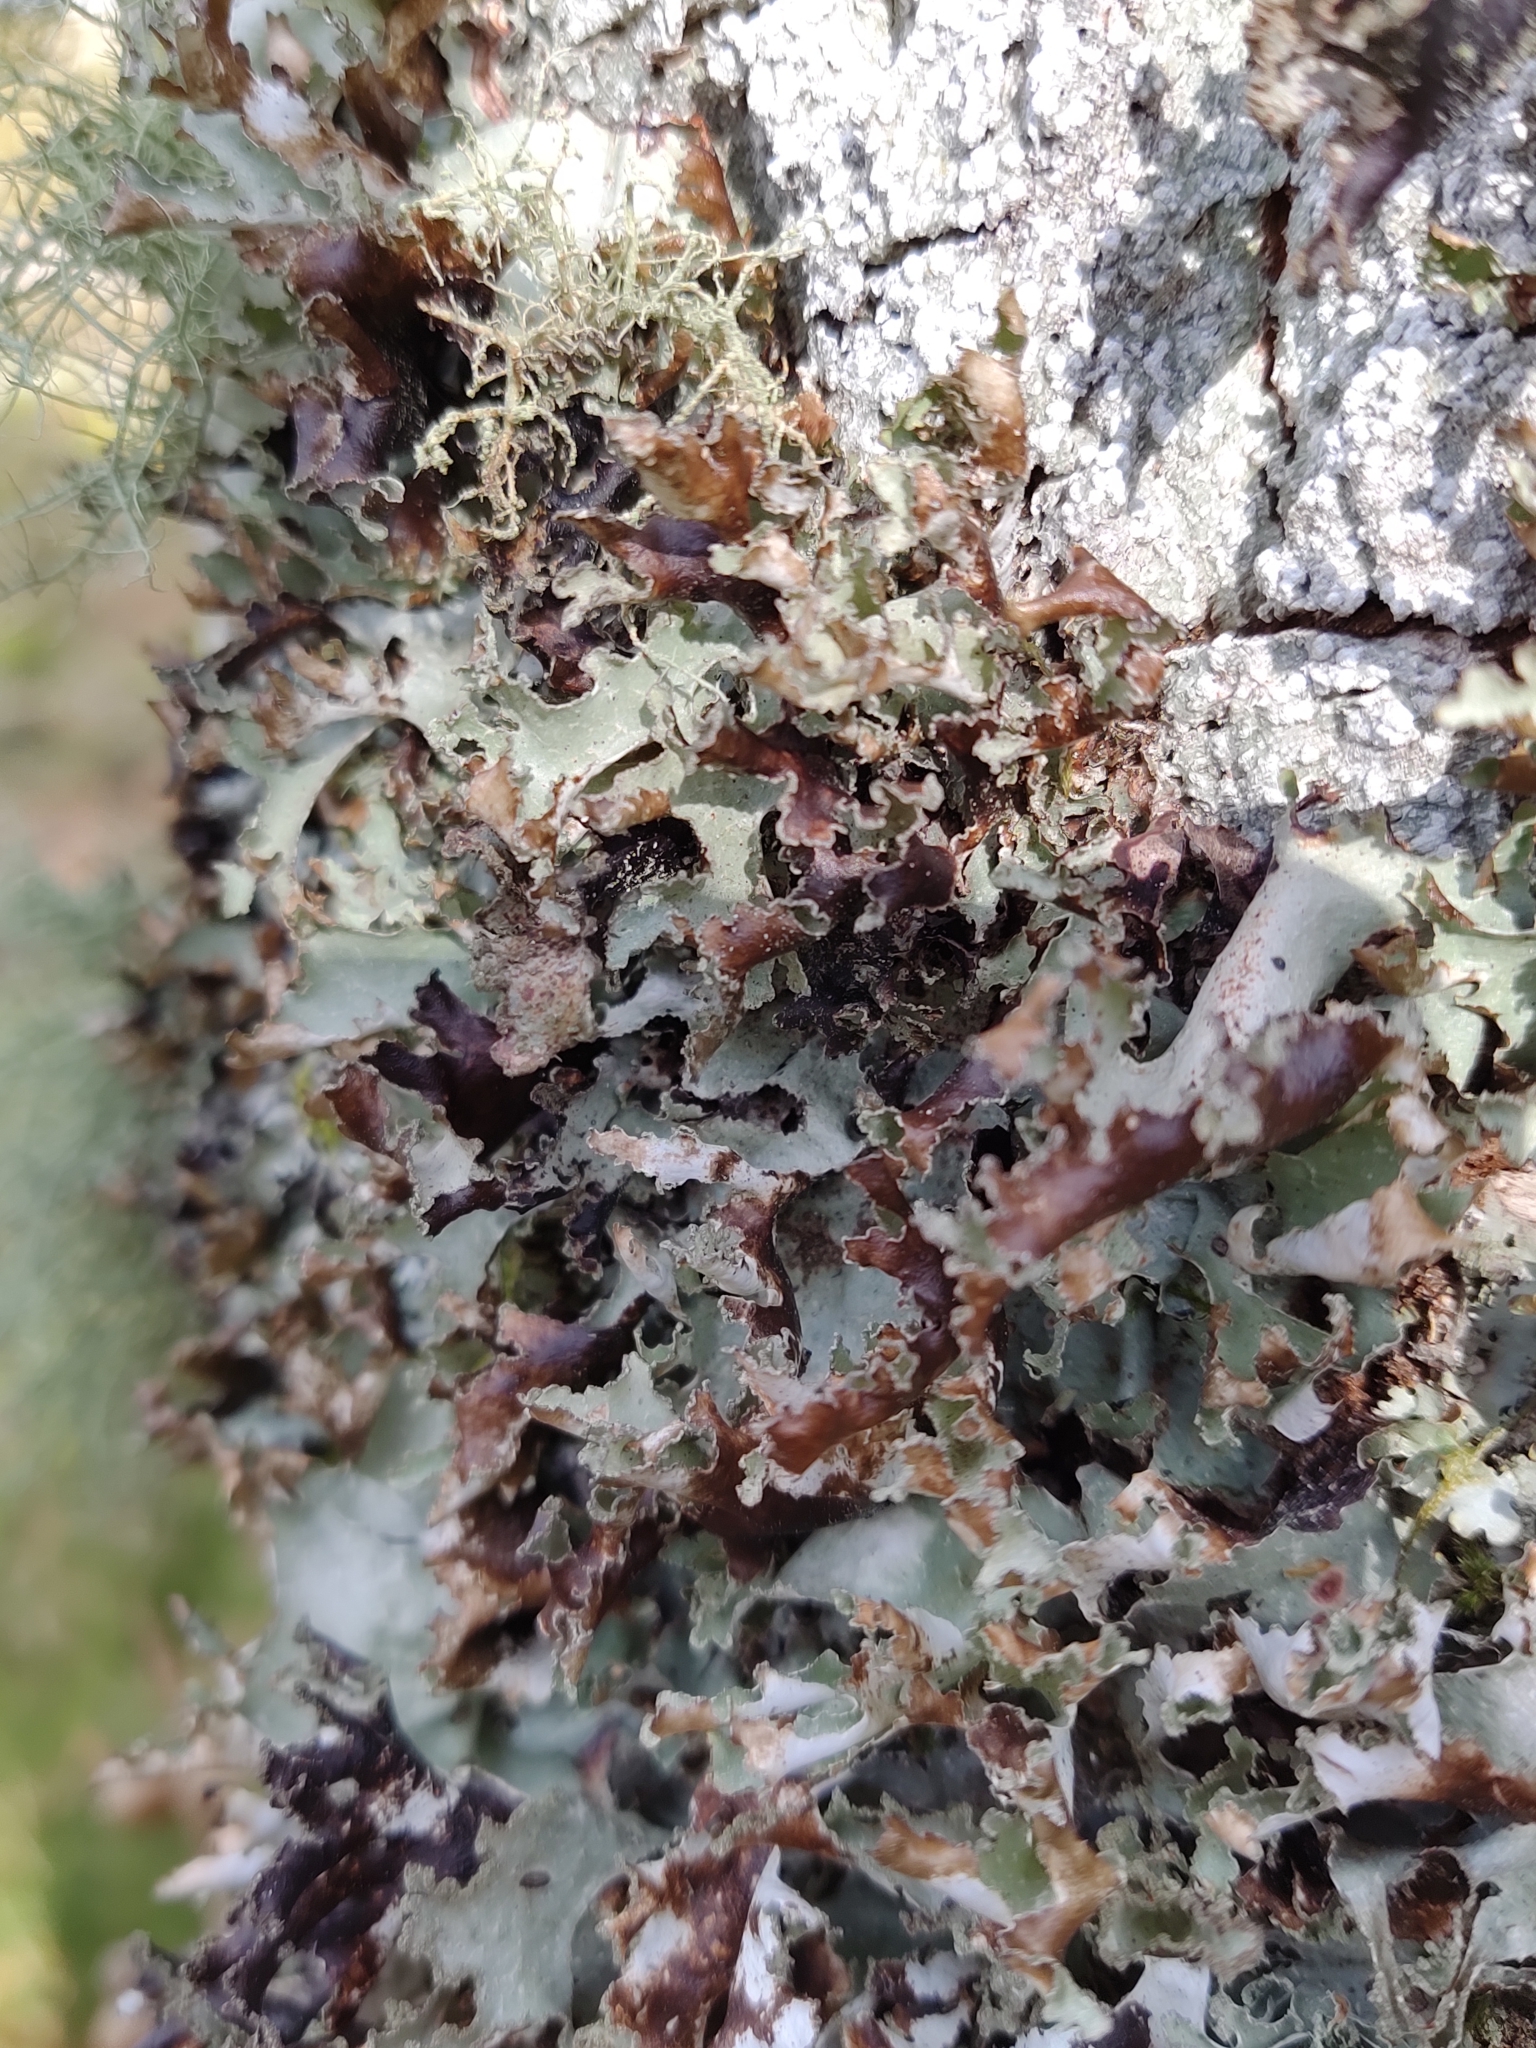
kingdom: Fungi
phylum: Ascomycota
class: Lecanoromycetes
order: Lecanorales
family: Parmeliaceae
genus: Platismatia
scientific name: Platismatia glauca
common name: Varied rag lichen
